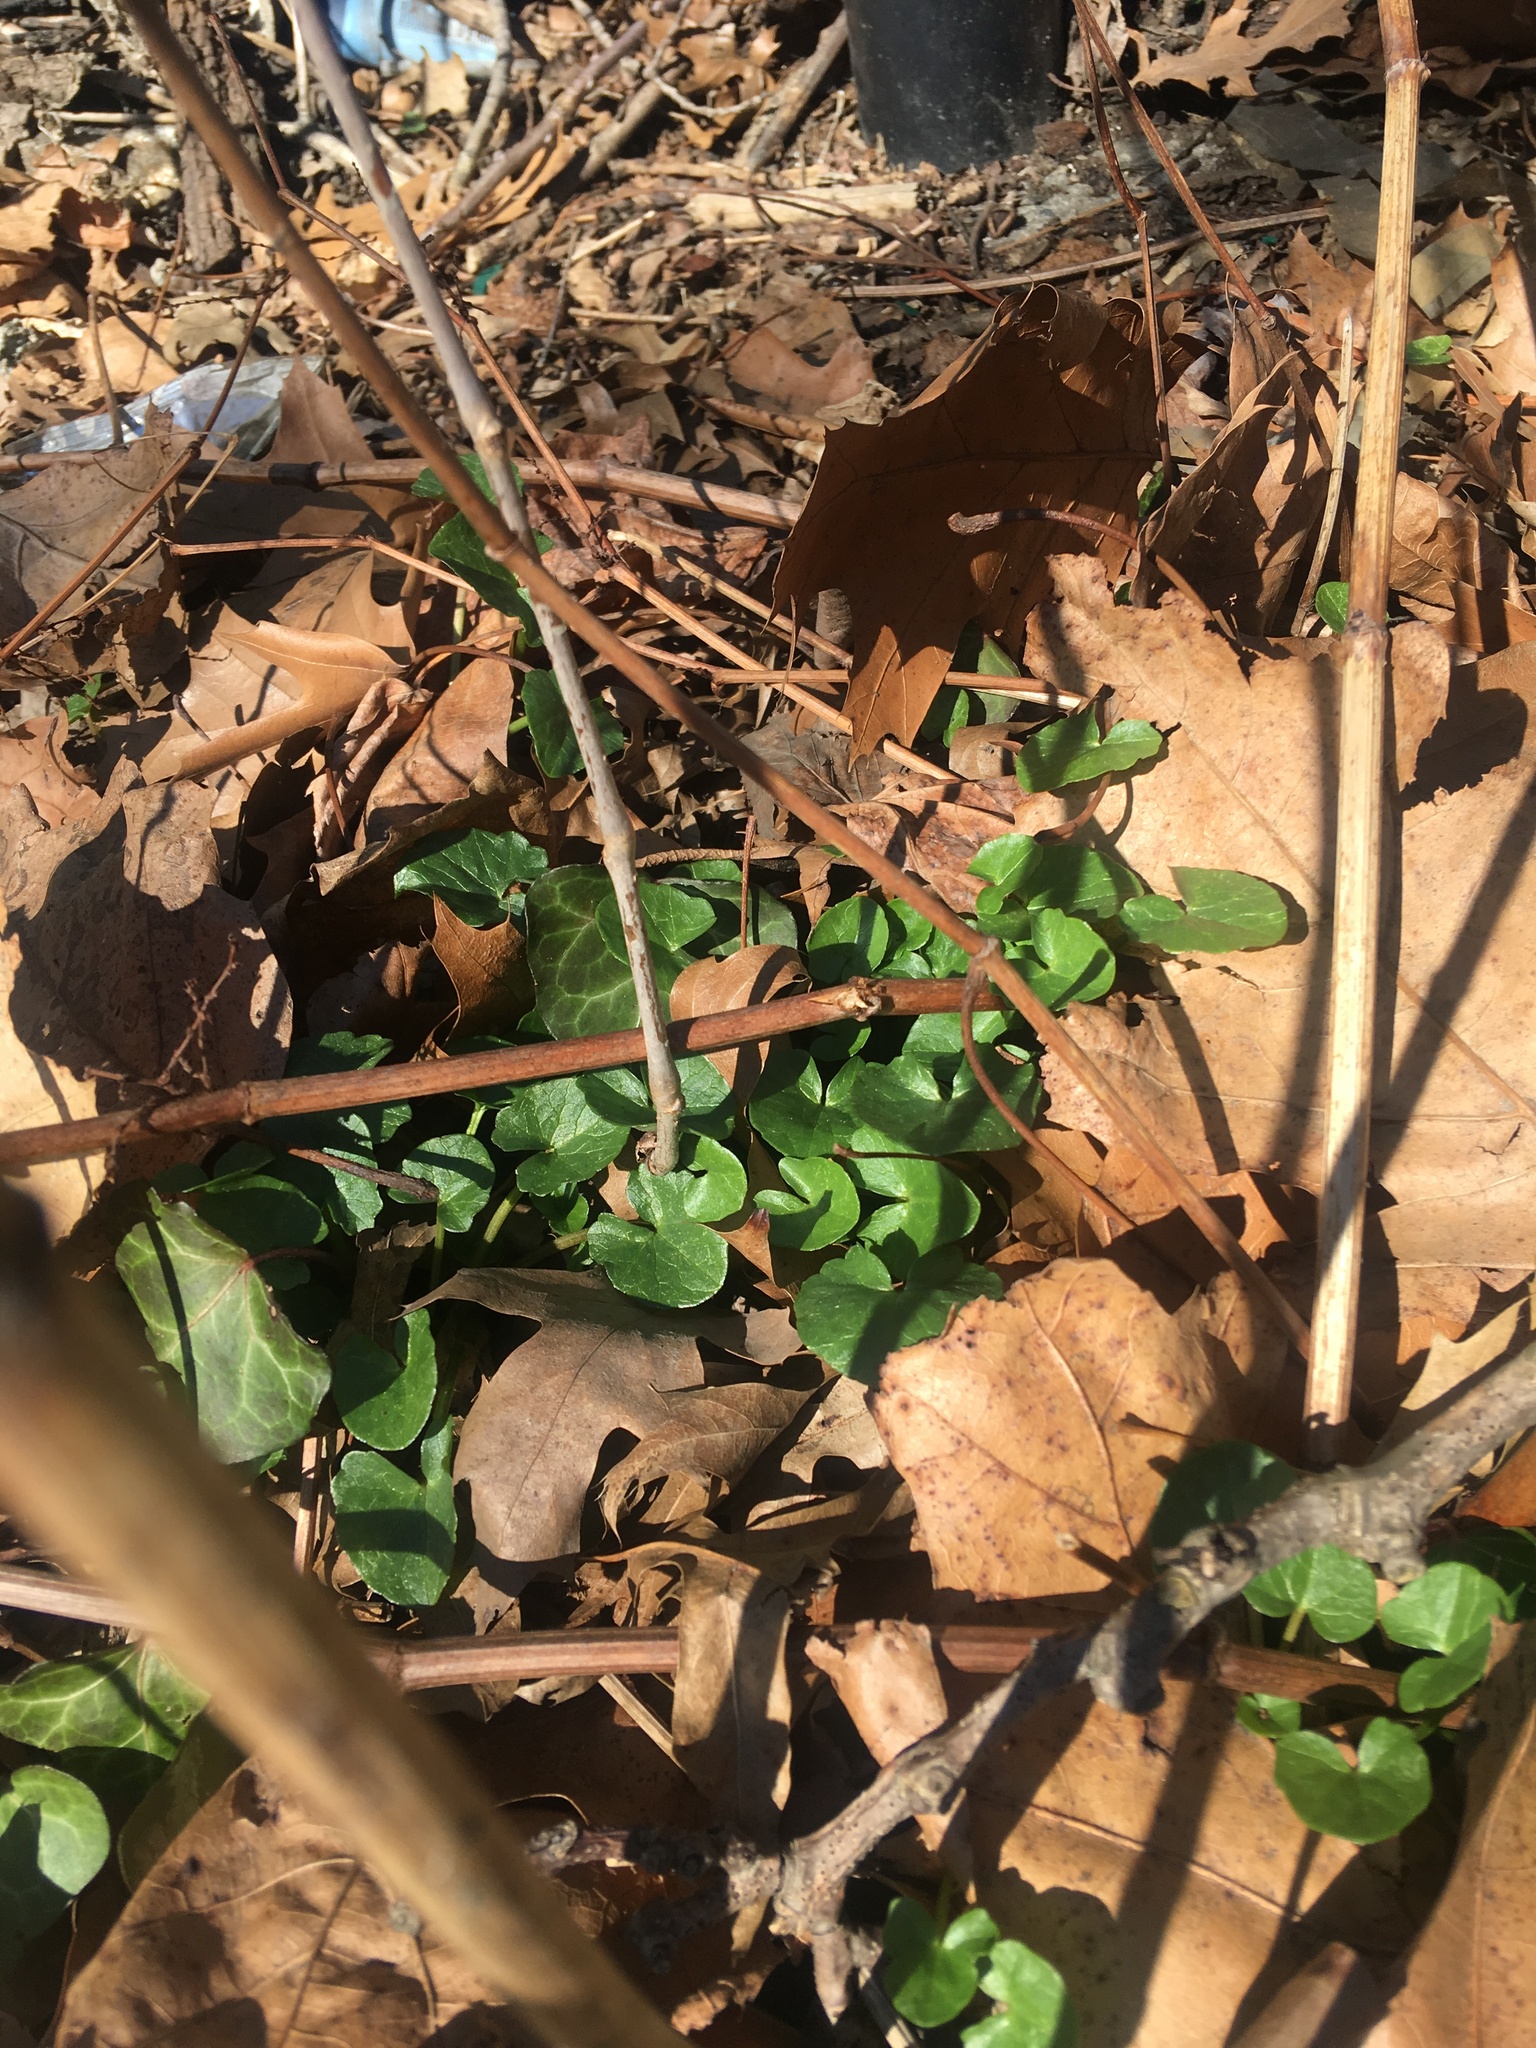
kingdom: Plantae
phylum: Tracheophyta
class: Magnoliopsida
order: Ranunculales
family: Ranunculaceae
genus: Ficaria
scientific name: Ficaria verna
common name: Lesser celandine
